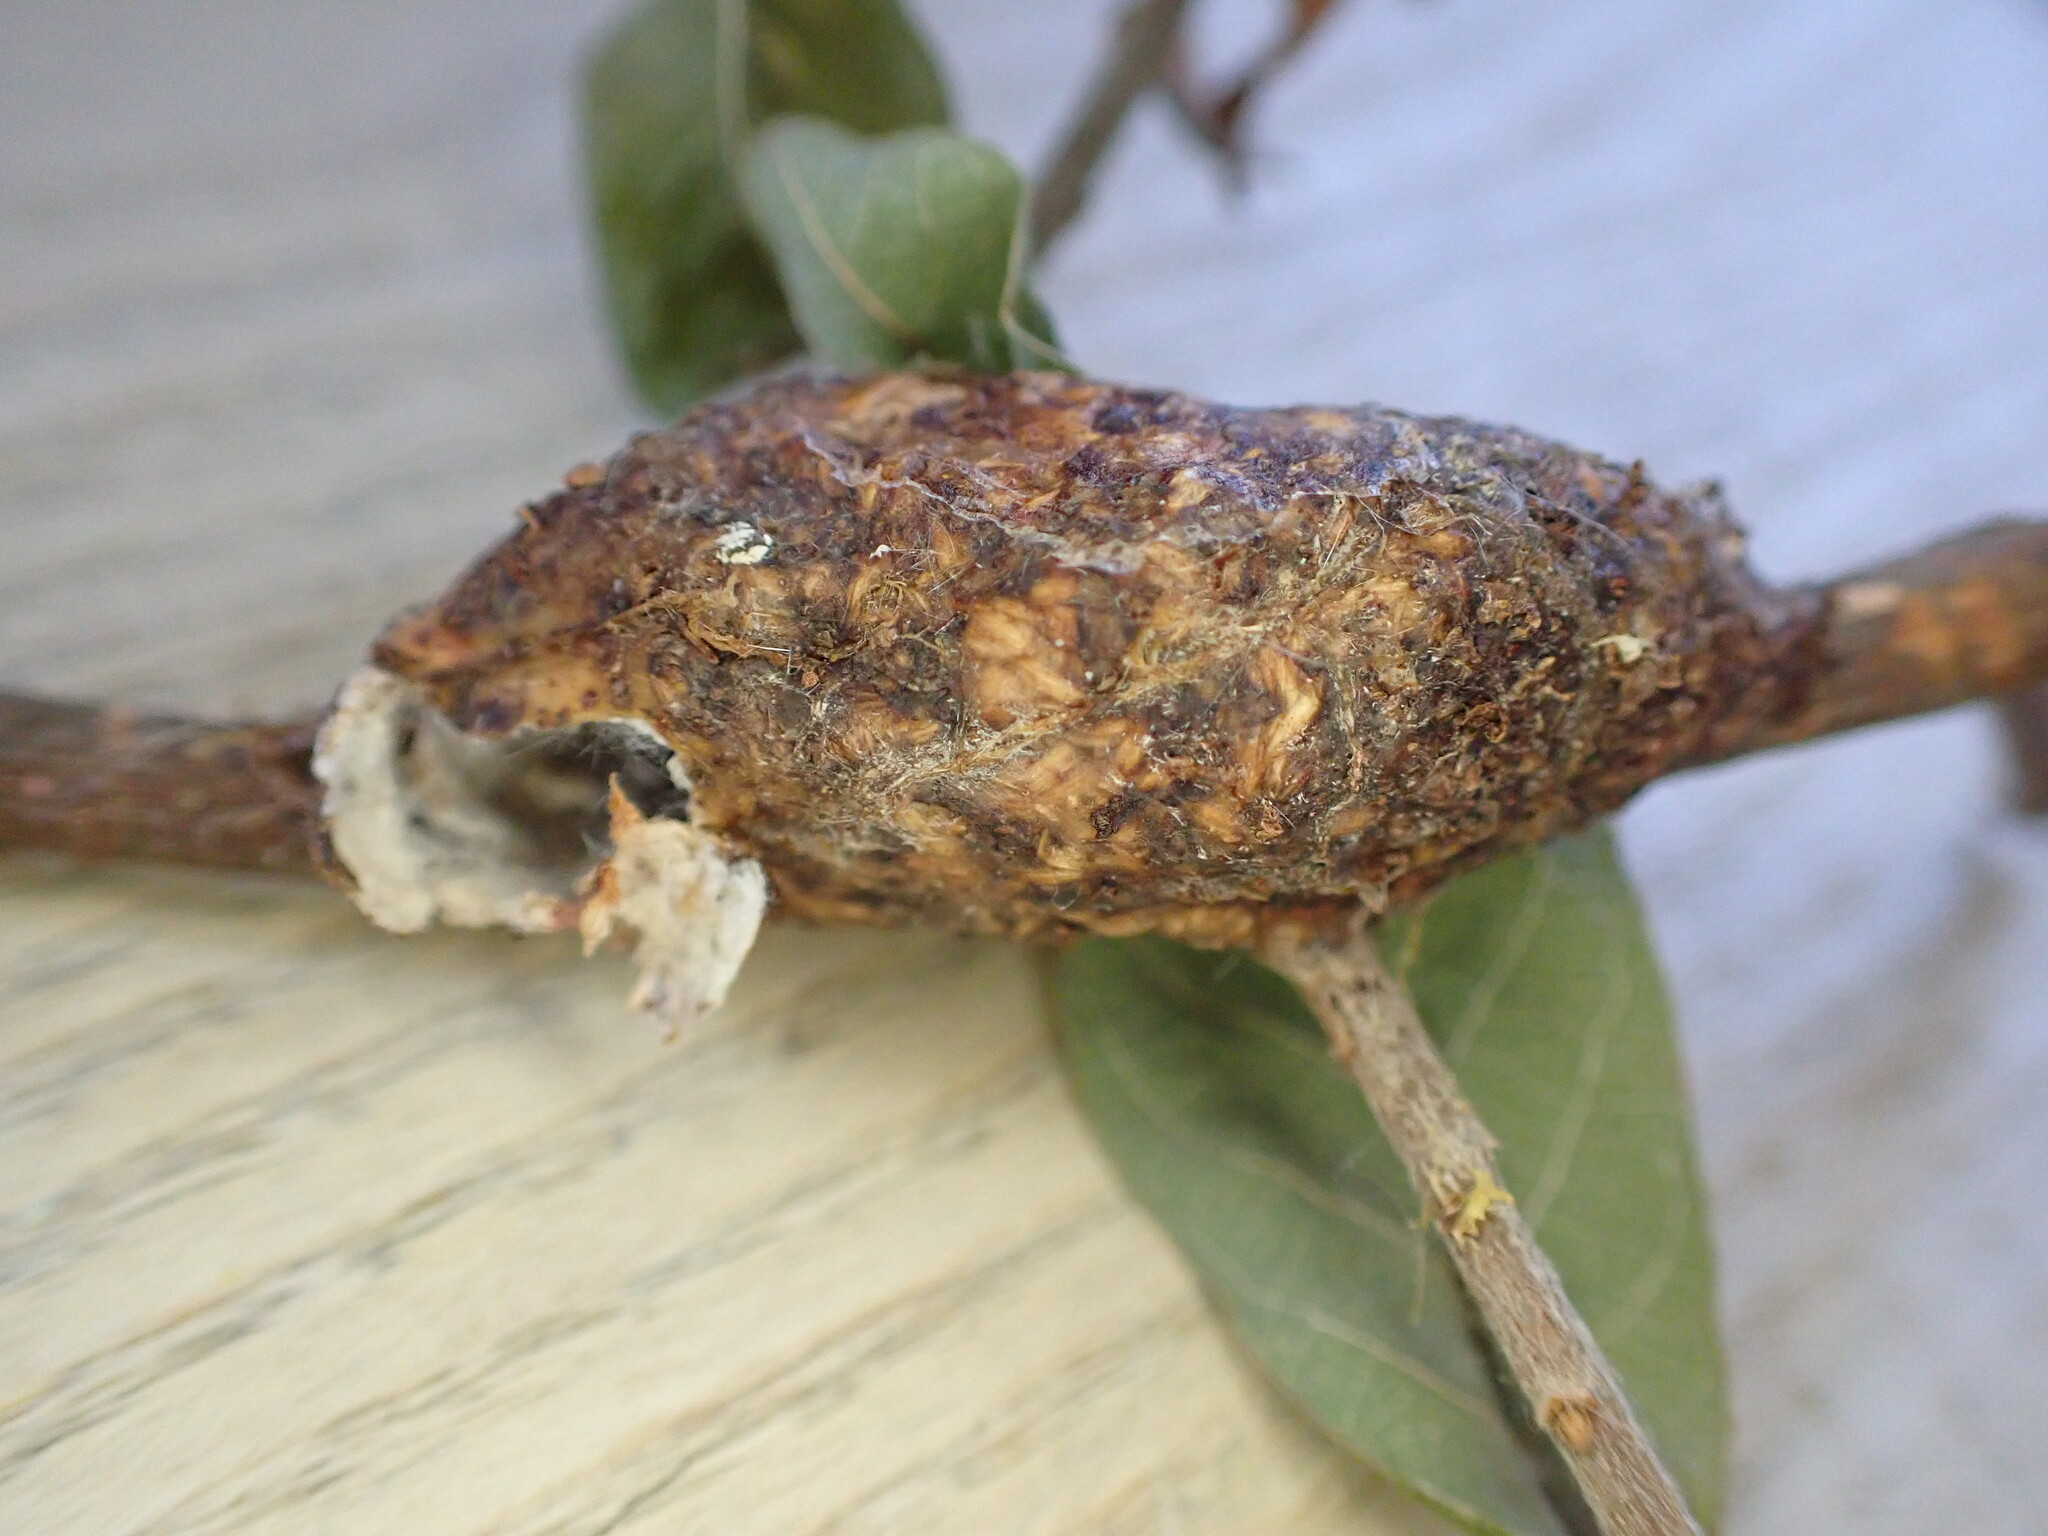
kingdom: Animalia
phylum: Arthropoda
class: Insecta
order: Lepidoptera
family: Notodontidae
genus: Cerura
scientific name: Cerura vinula
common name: Puss moth
